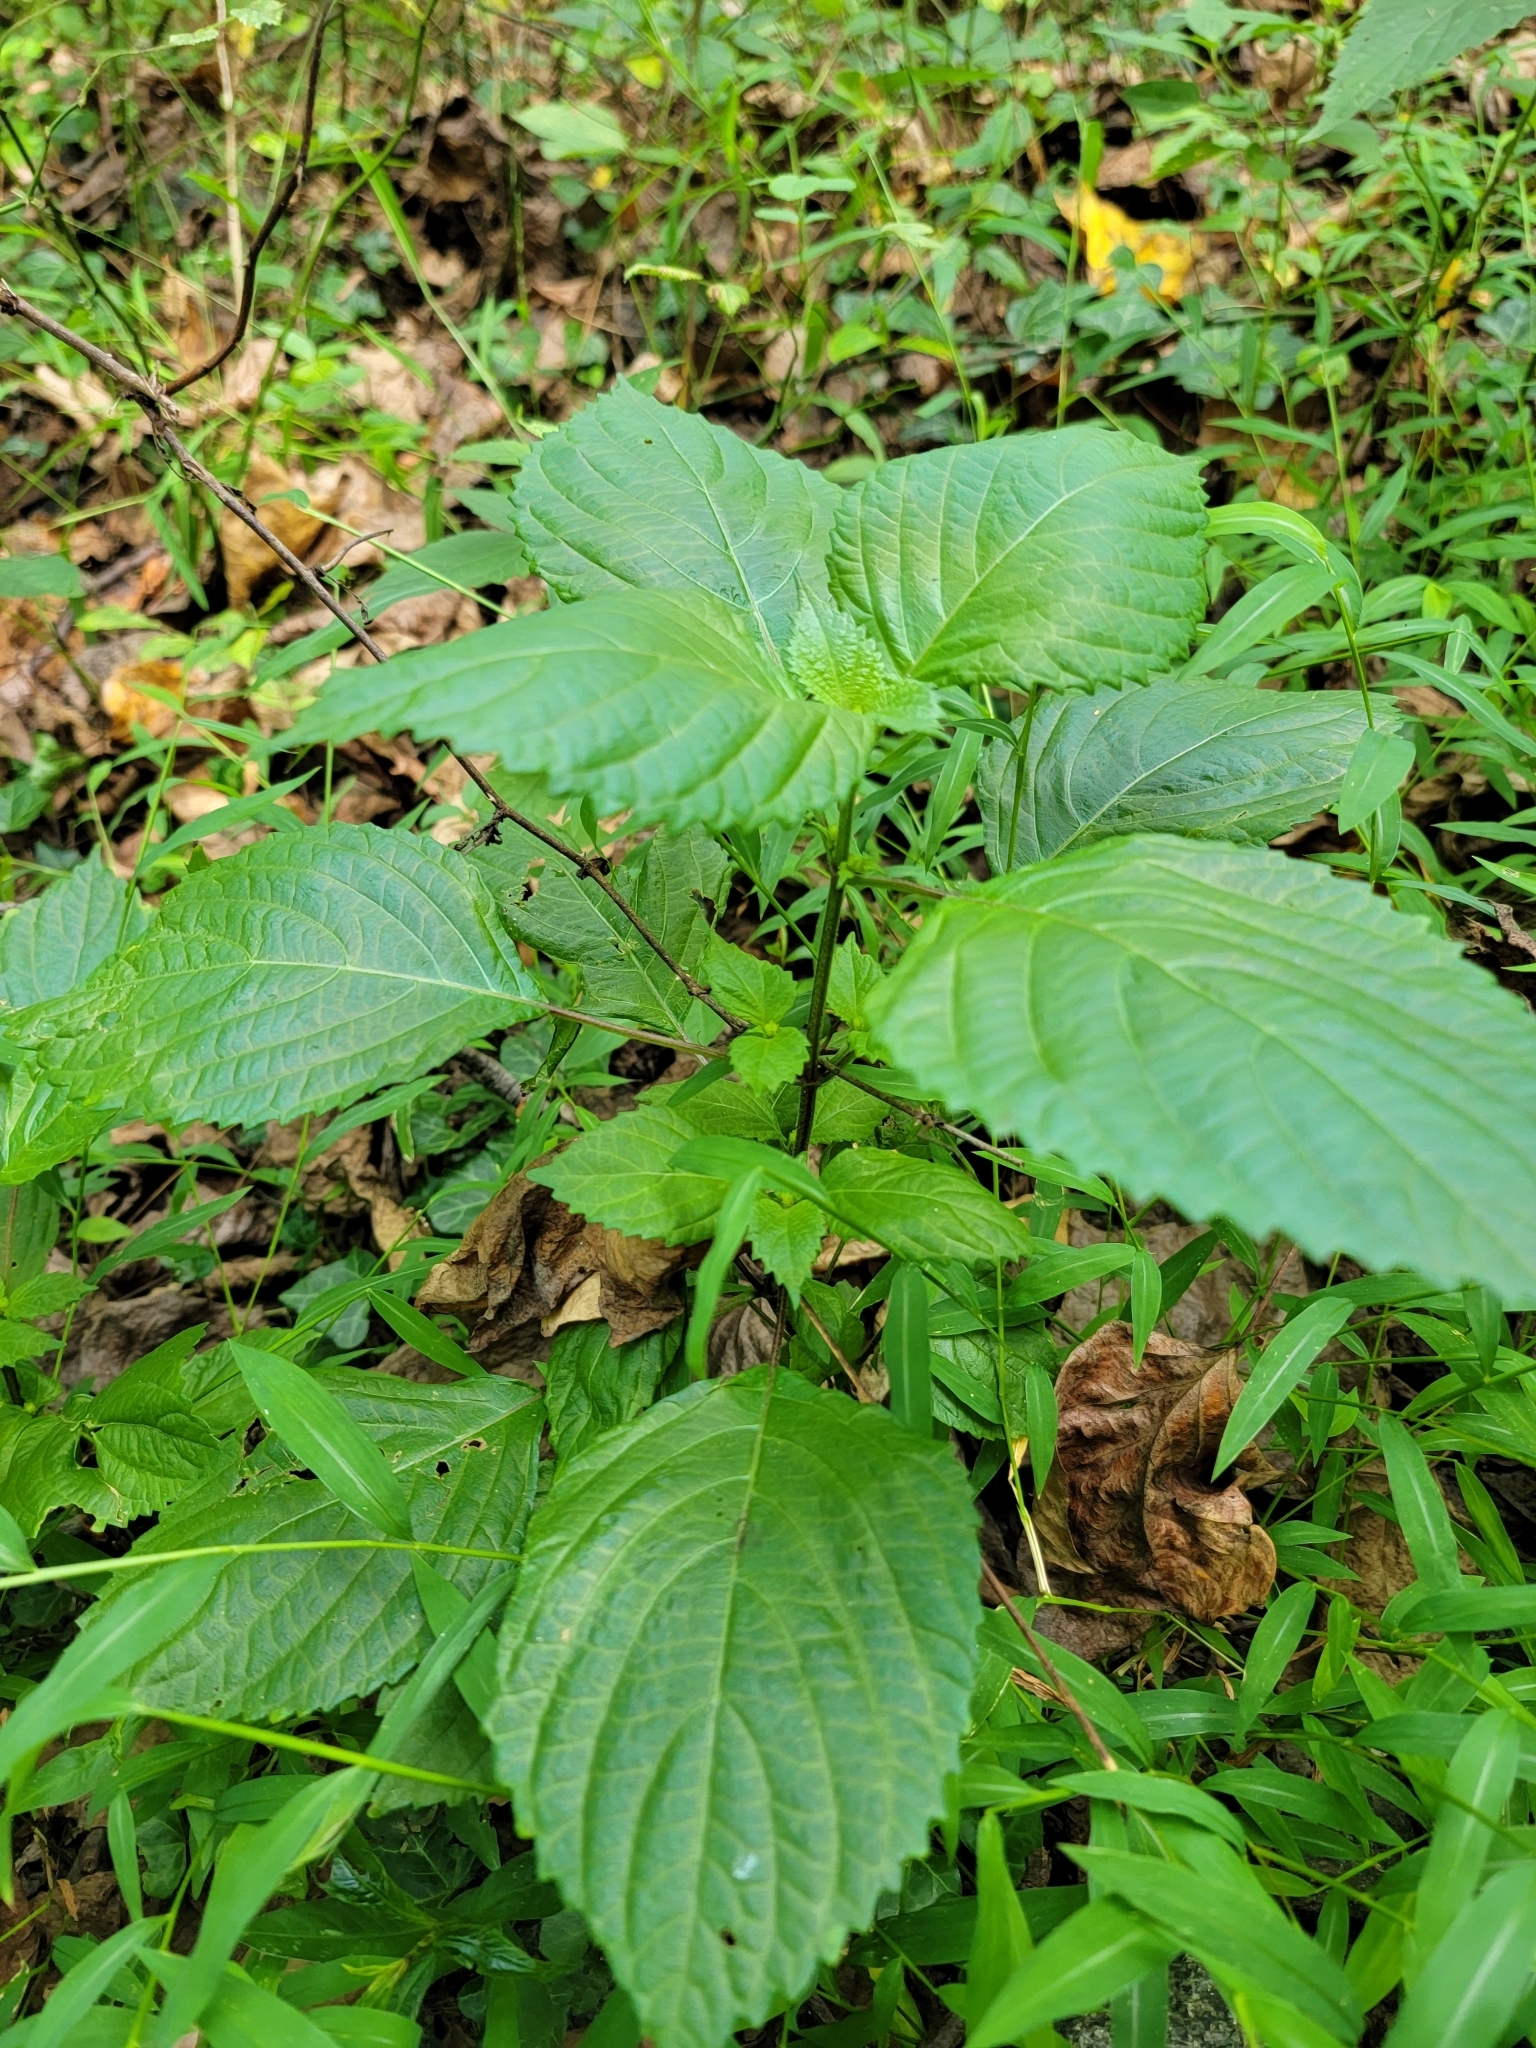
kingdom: Plantae
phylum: Tracheophyta
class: Magnoliopsida
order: Lamiales
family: Lamiaceae
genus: Perilla
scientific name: Perilla frutescens
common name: Perilla
